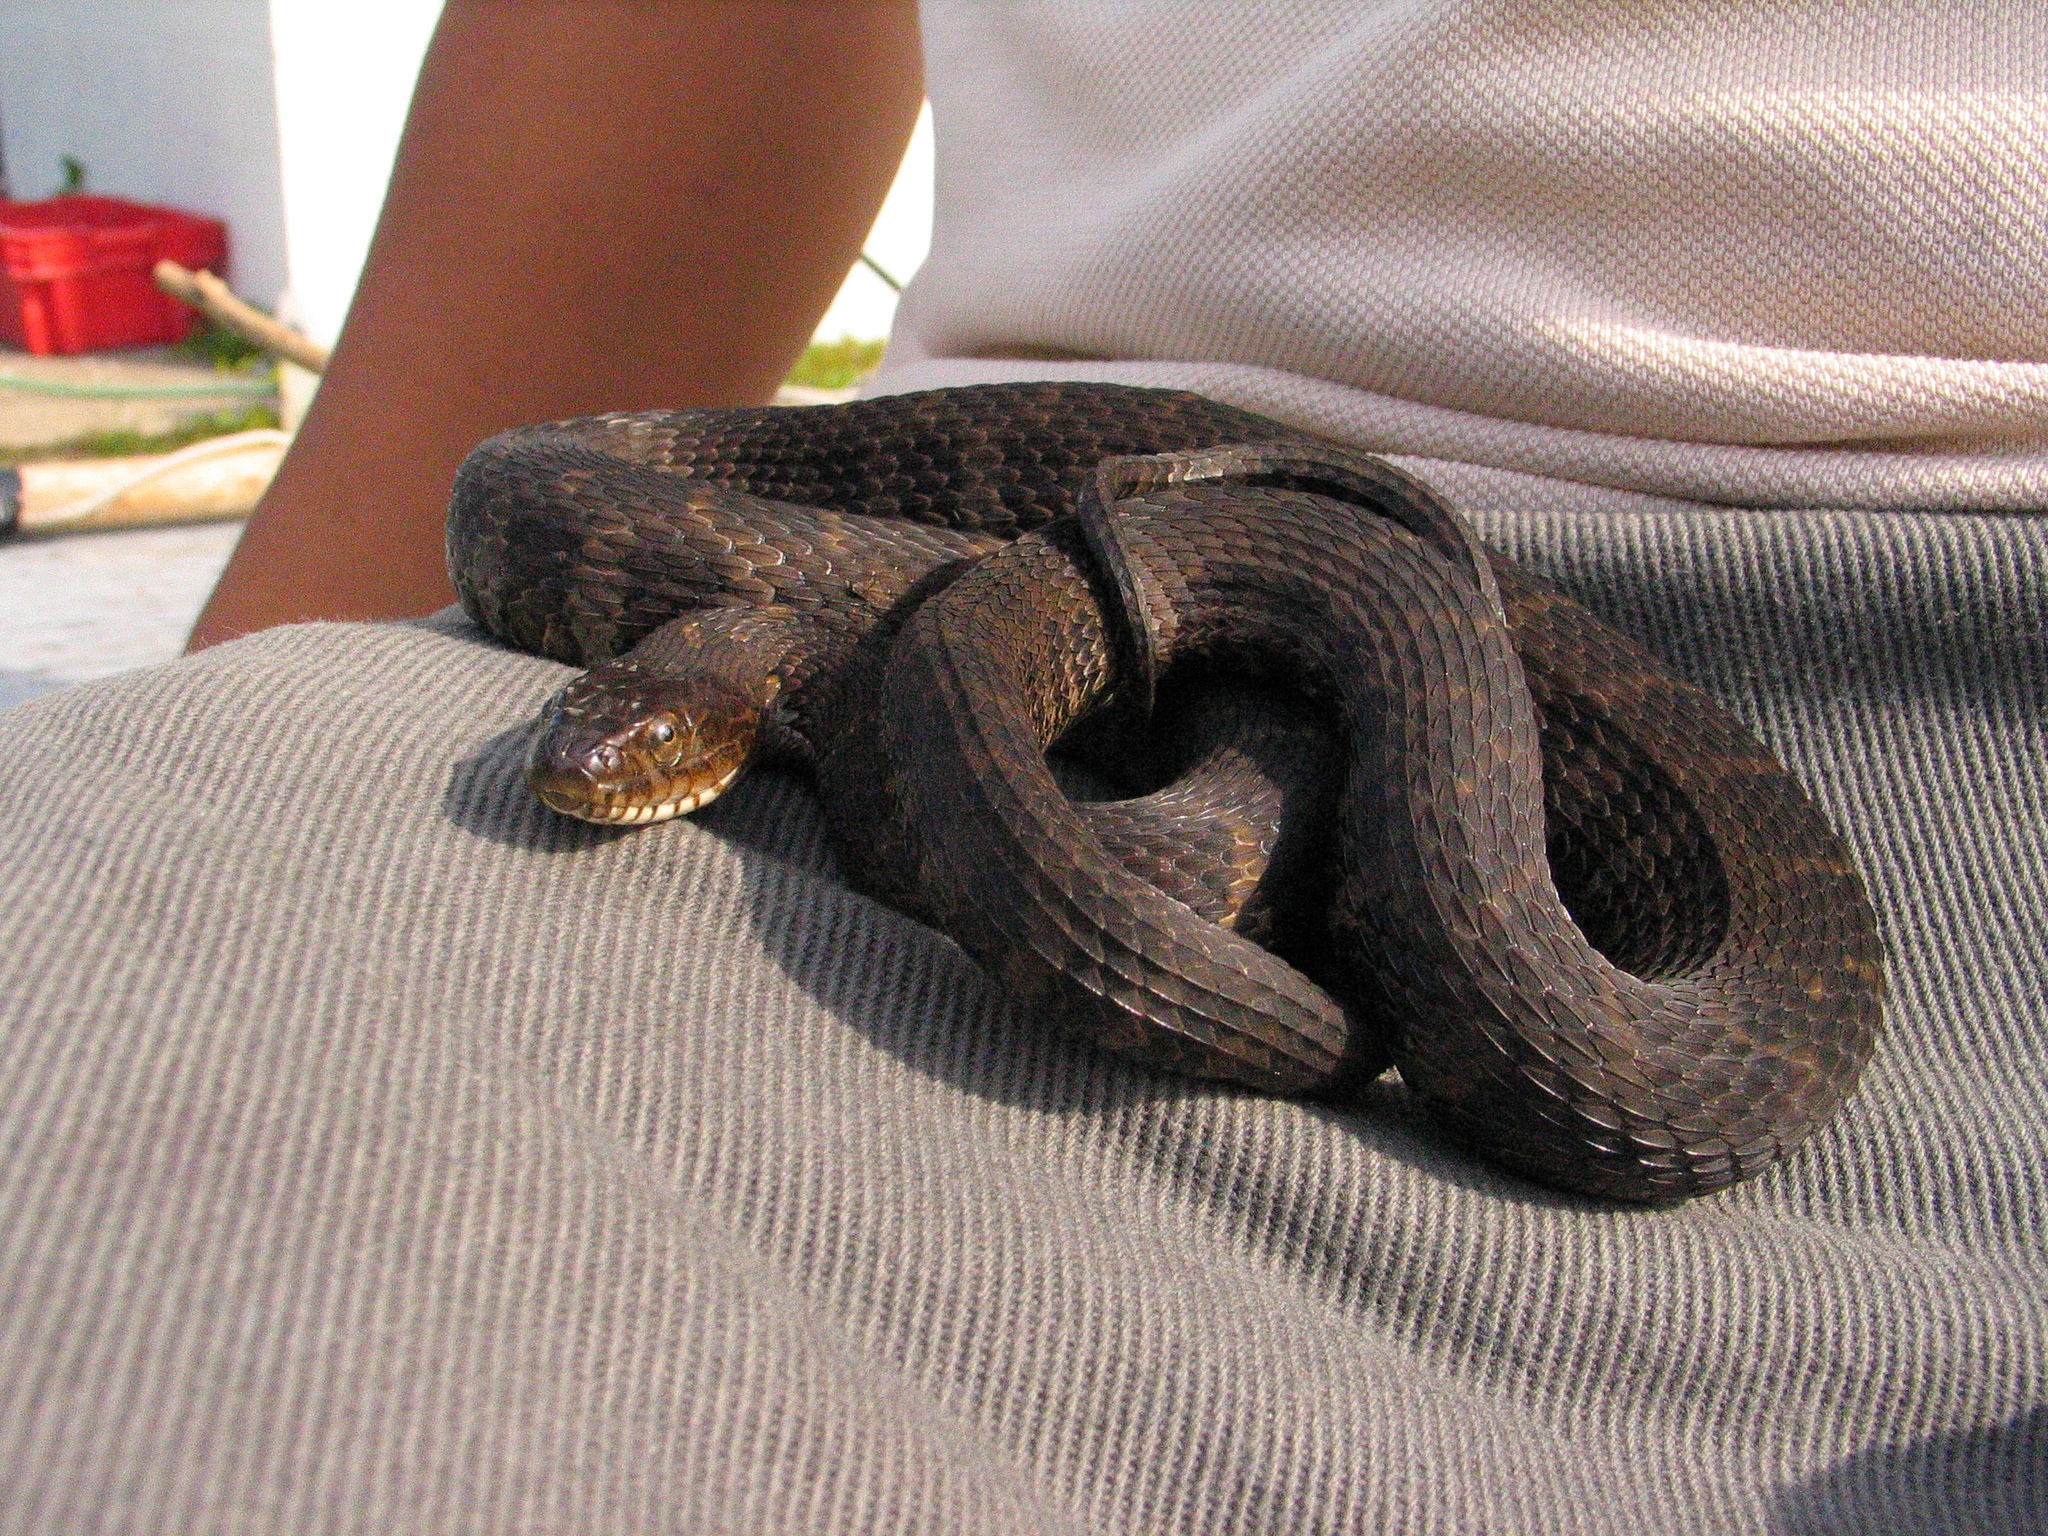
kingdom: Animalia
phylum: Chordata
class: Squamata
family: Colubridae
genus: Nerodia
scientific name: Nerodia sipedon
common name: Northern water snake
